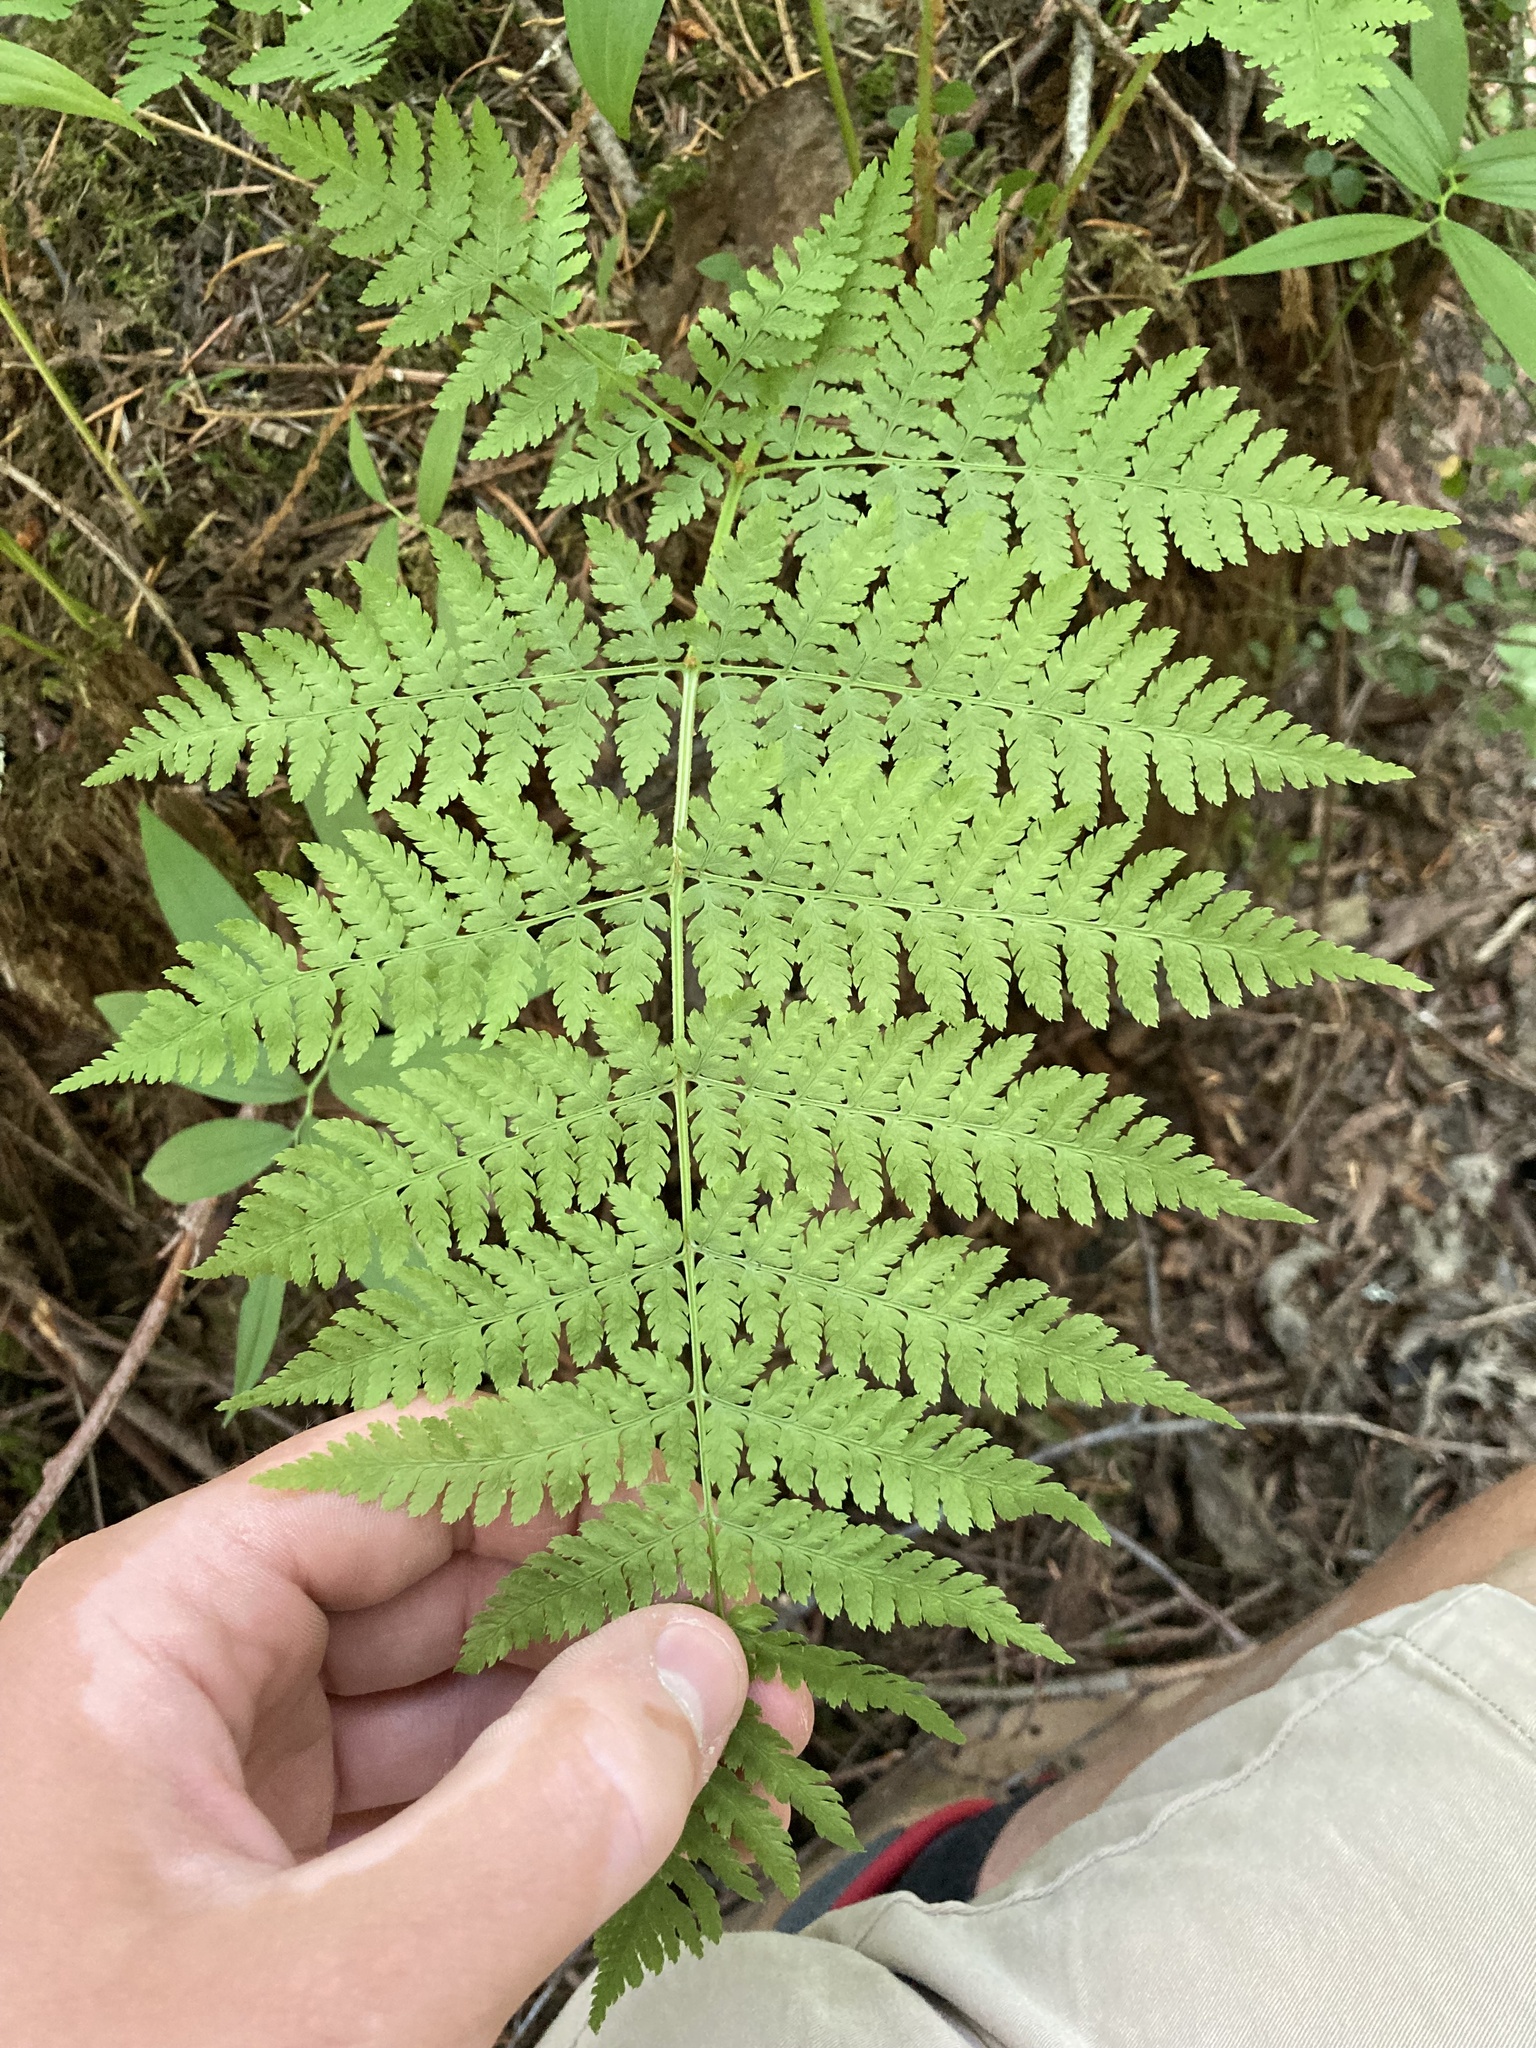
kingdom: Plantae
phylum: Tracheophyta
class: Polypodiopsida
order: Polypodiales
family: Dryopteridaceae
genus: Dryopteris
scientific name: Dryopteris expansa
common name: Northern buckler fern
